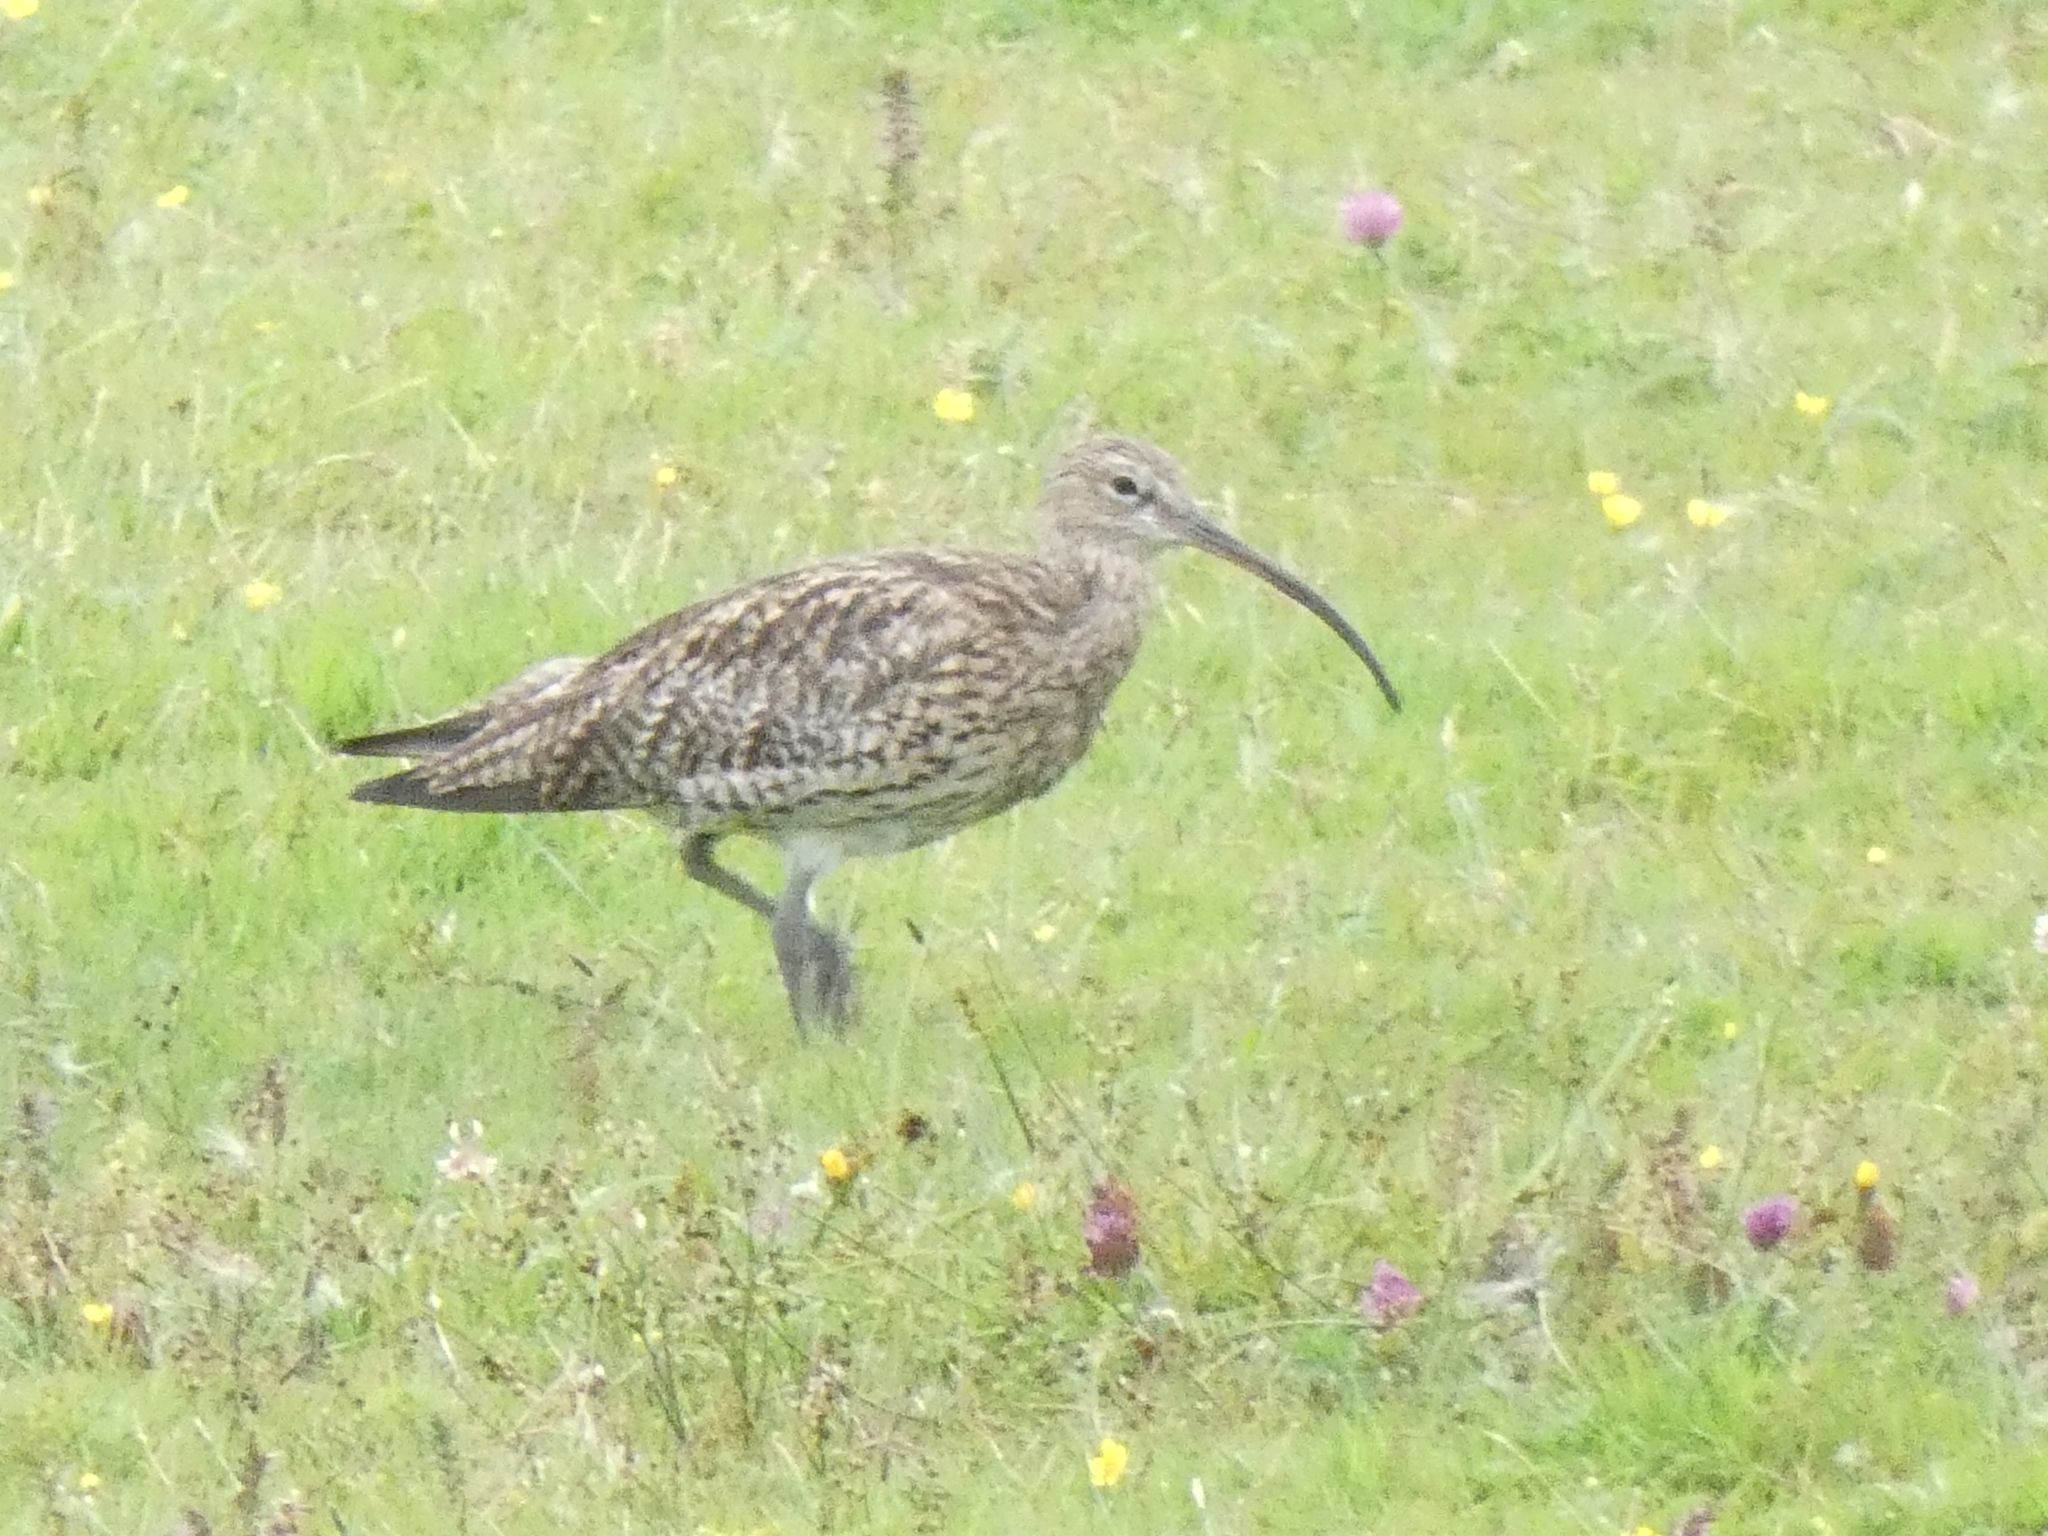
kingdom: Animalia
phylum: Chordata
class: Aves
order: Charadriiformes
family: Scolopacidae
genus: Numenius
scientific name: Numenius arquata
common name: Eurasian curlew
